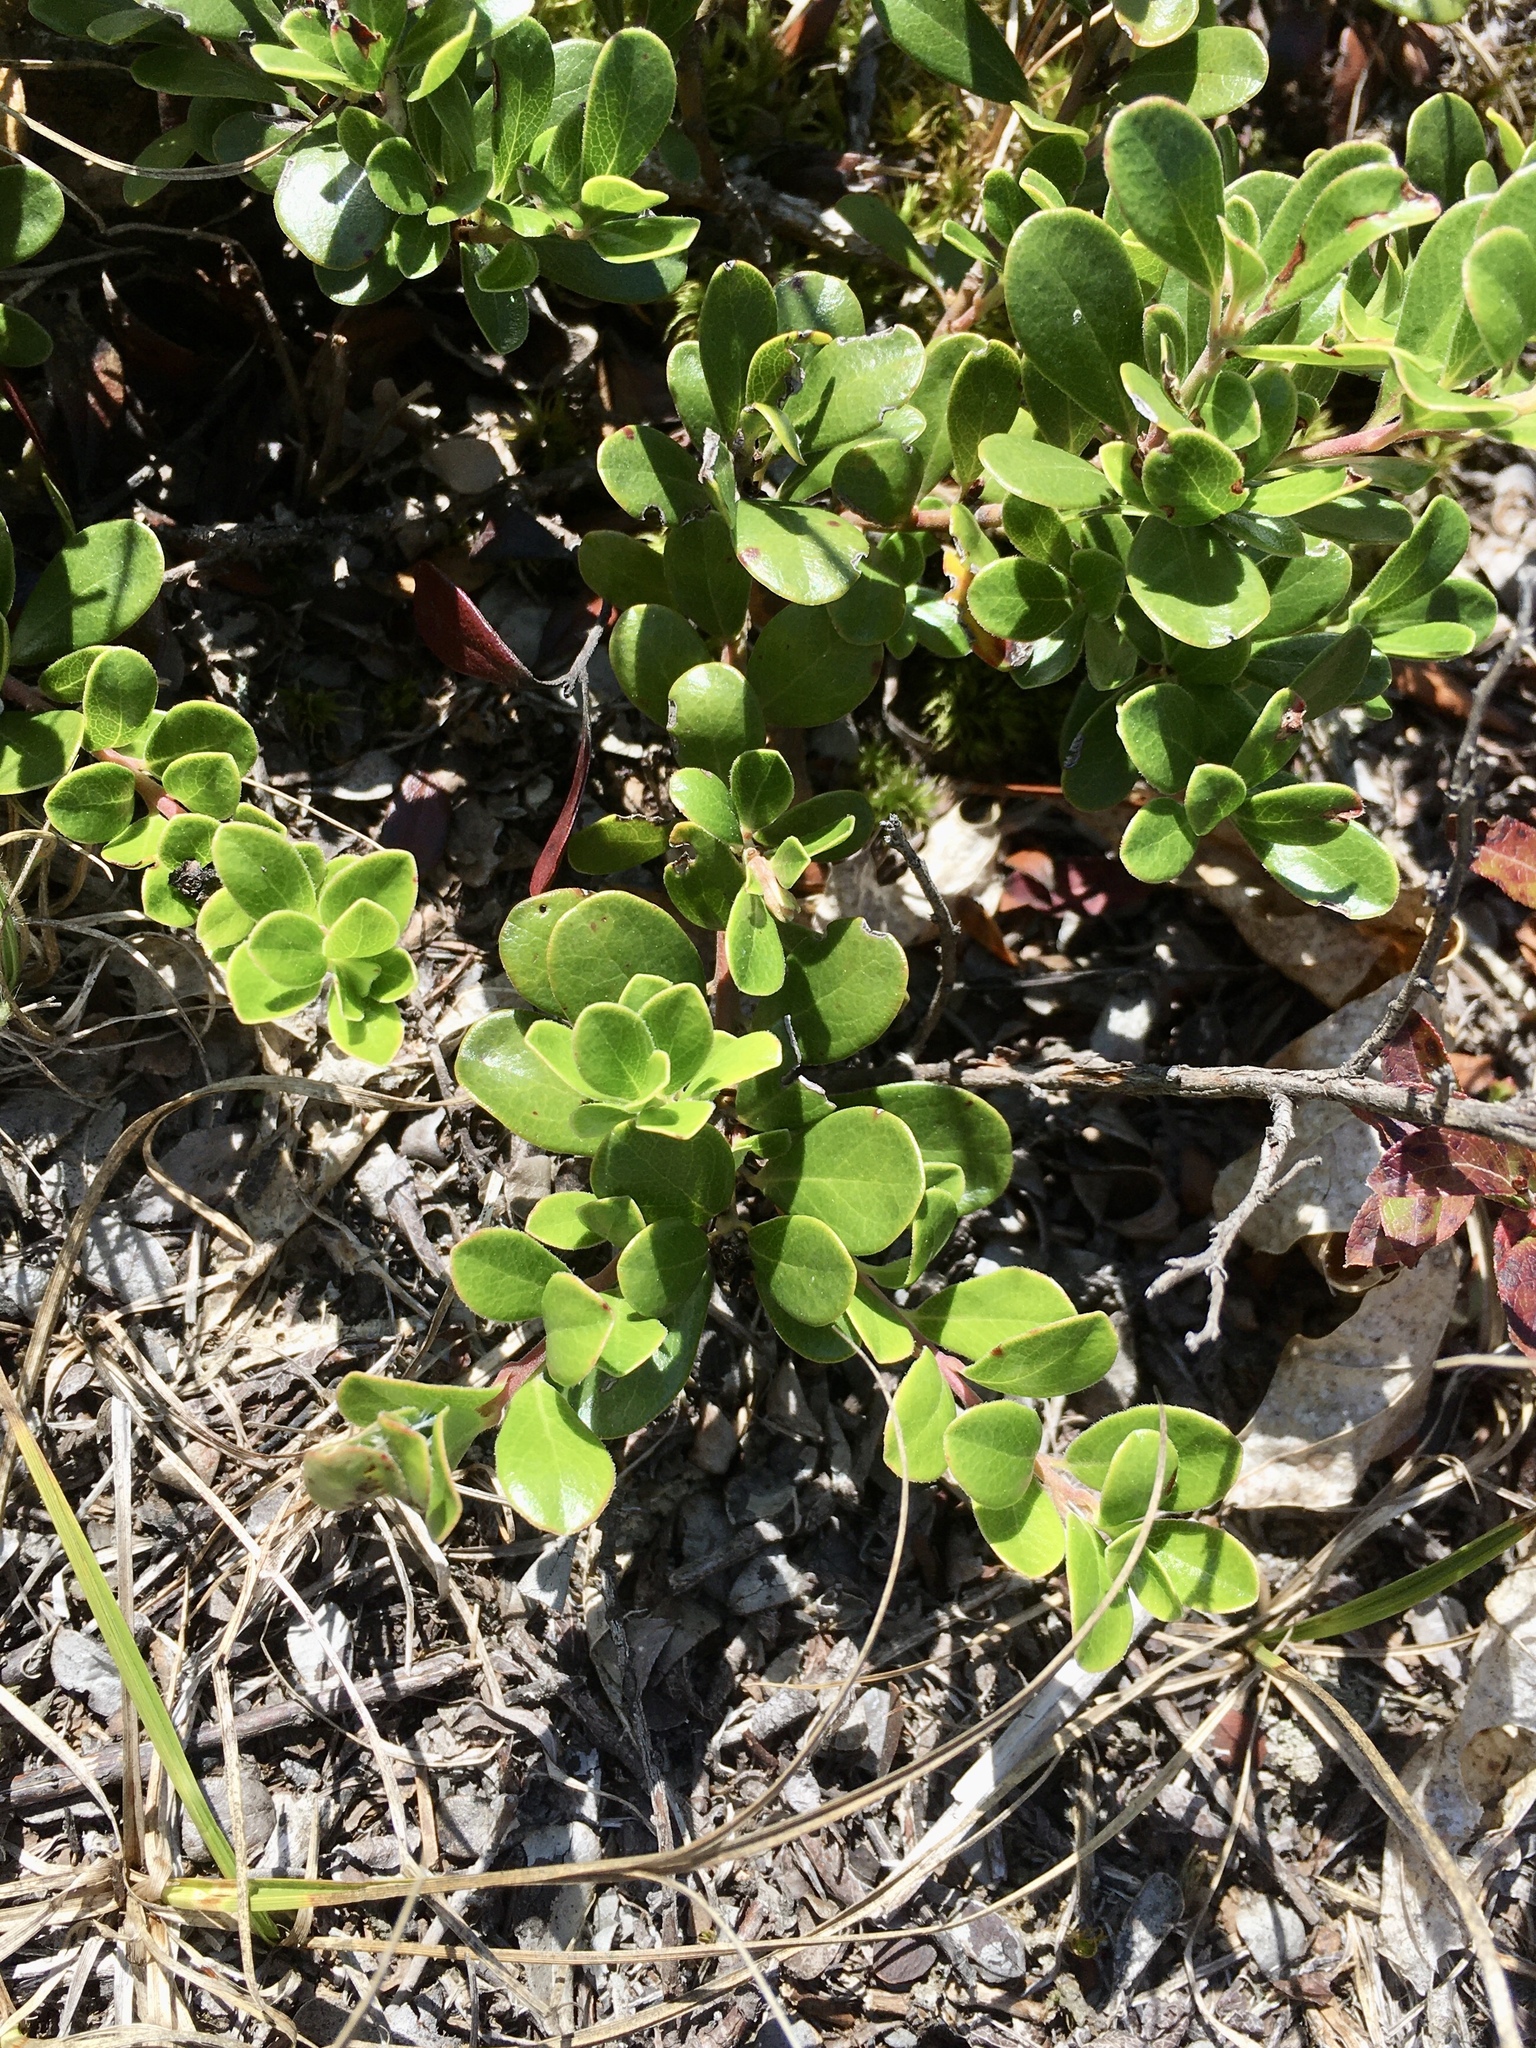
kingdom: Plantae
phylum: Tracheophyta
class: Magnoliopsida
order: Ericales
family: Ericaceae
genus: Arctostaphylos
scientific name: Arctostaphylos uva-ursi
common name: Bearberry
